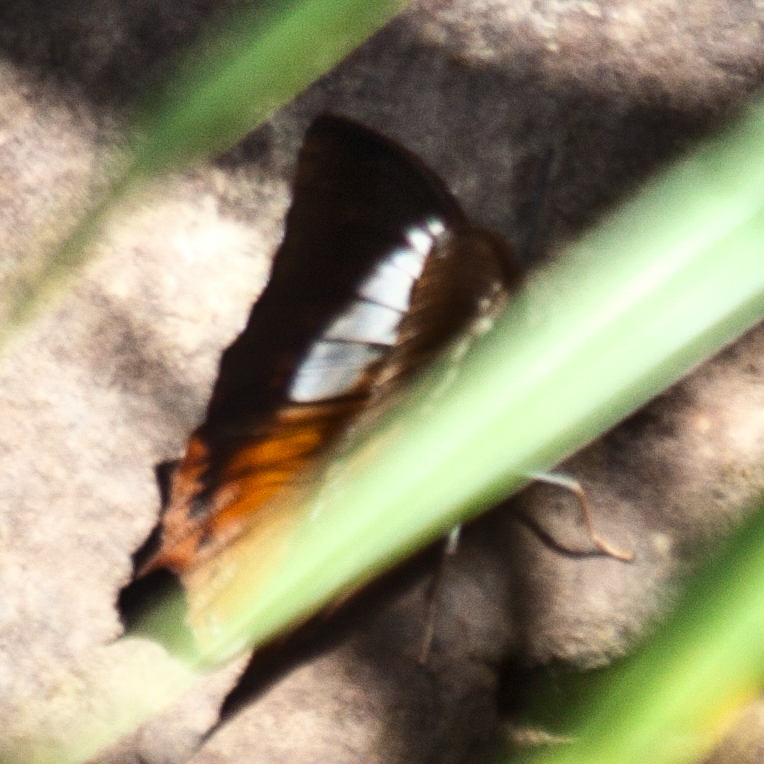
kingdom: Animalia
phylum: Arthropoda
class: Insecta
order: Lepidoptera
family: Nymphalidae
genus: Charaxes
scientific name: Charaxes bernardus
